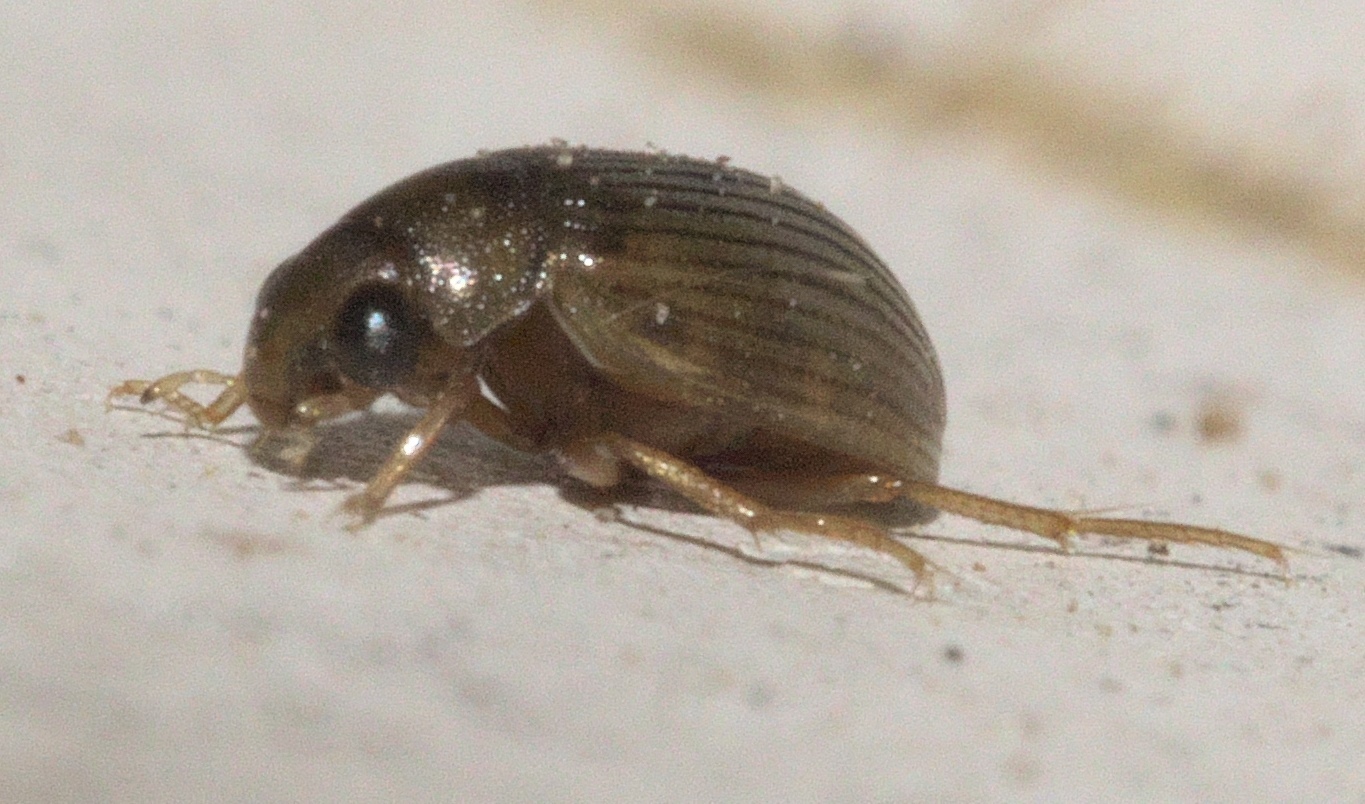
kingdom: Animalia
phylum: Arthropoda
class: Insecta
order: Coleoptera
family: Hydrophilidae
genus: Berosus
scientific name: Berosus exiguus
